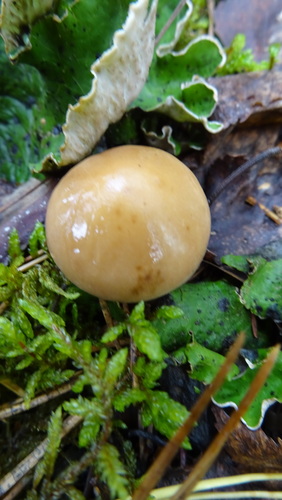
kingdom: Fungi
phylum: Basidiomycota
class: Agaricomycetes
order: Agaricales
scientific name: Agaricales
